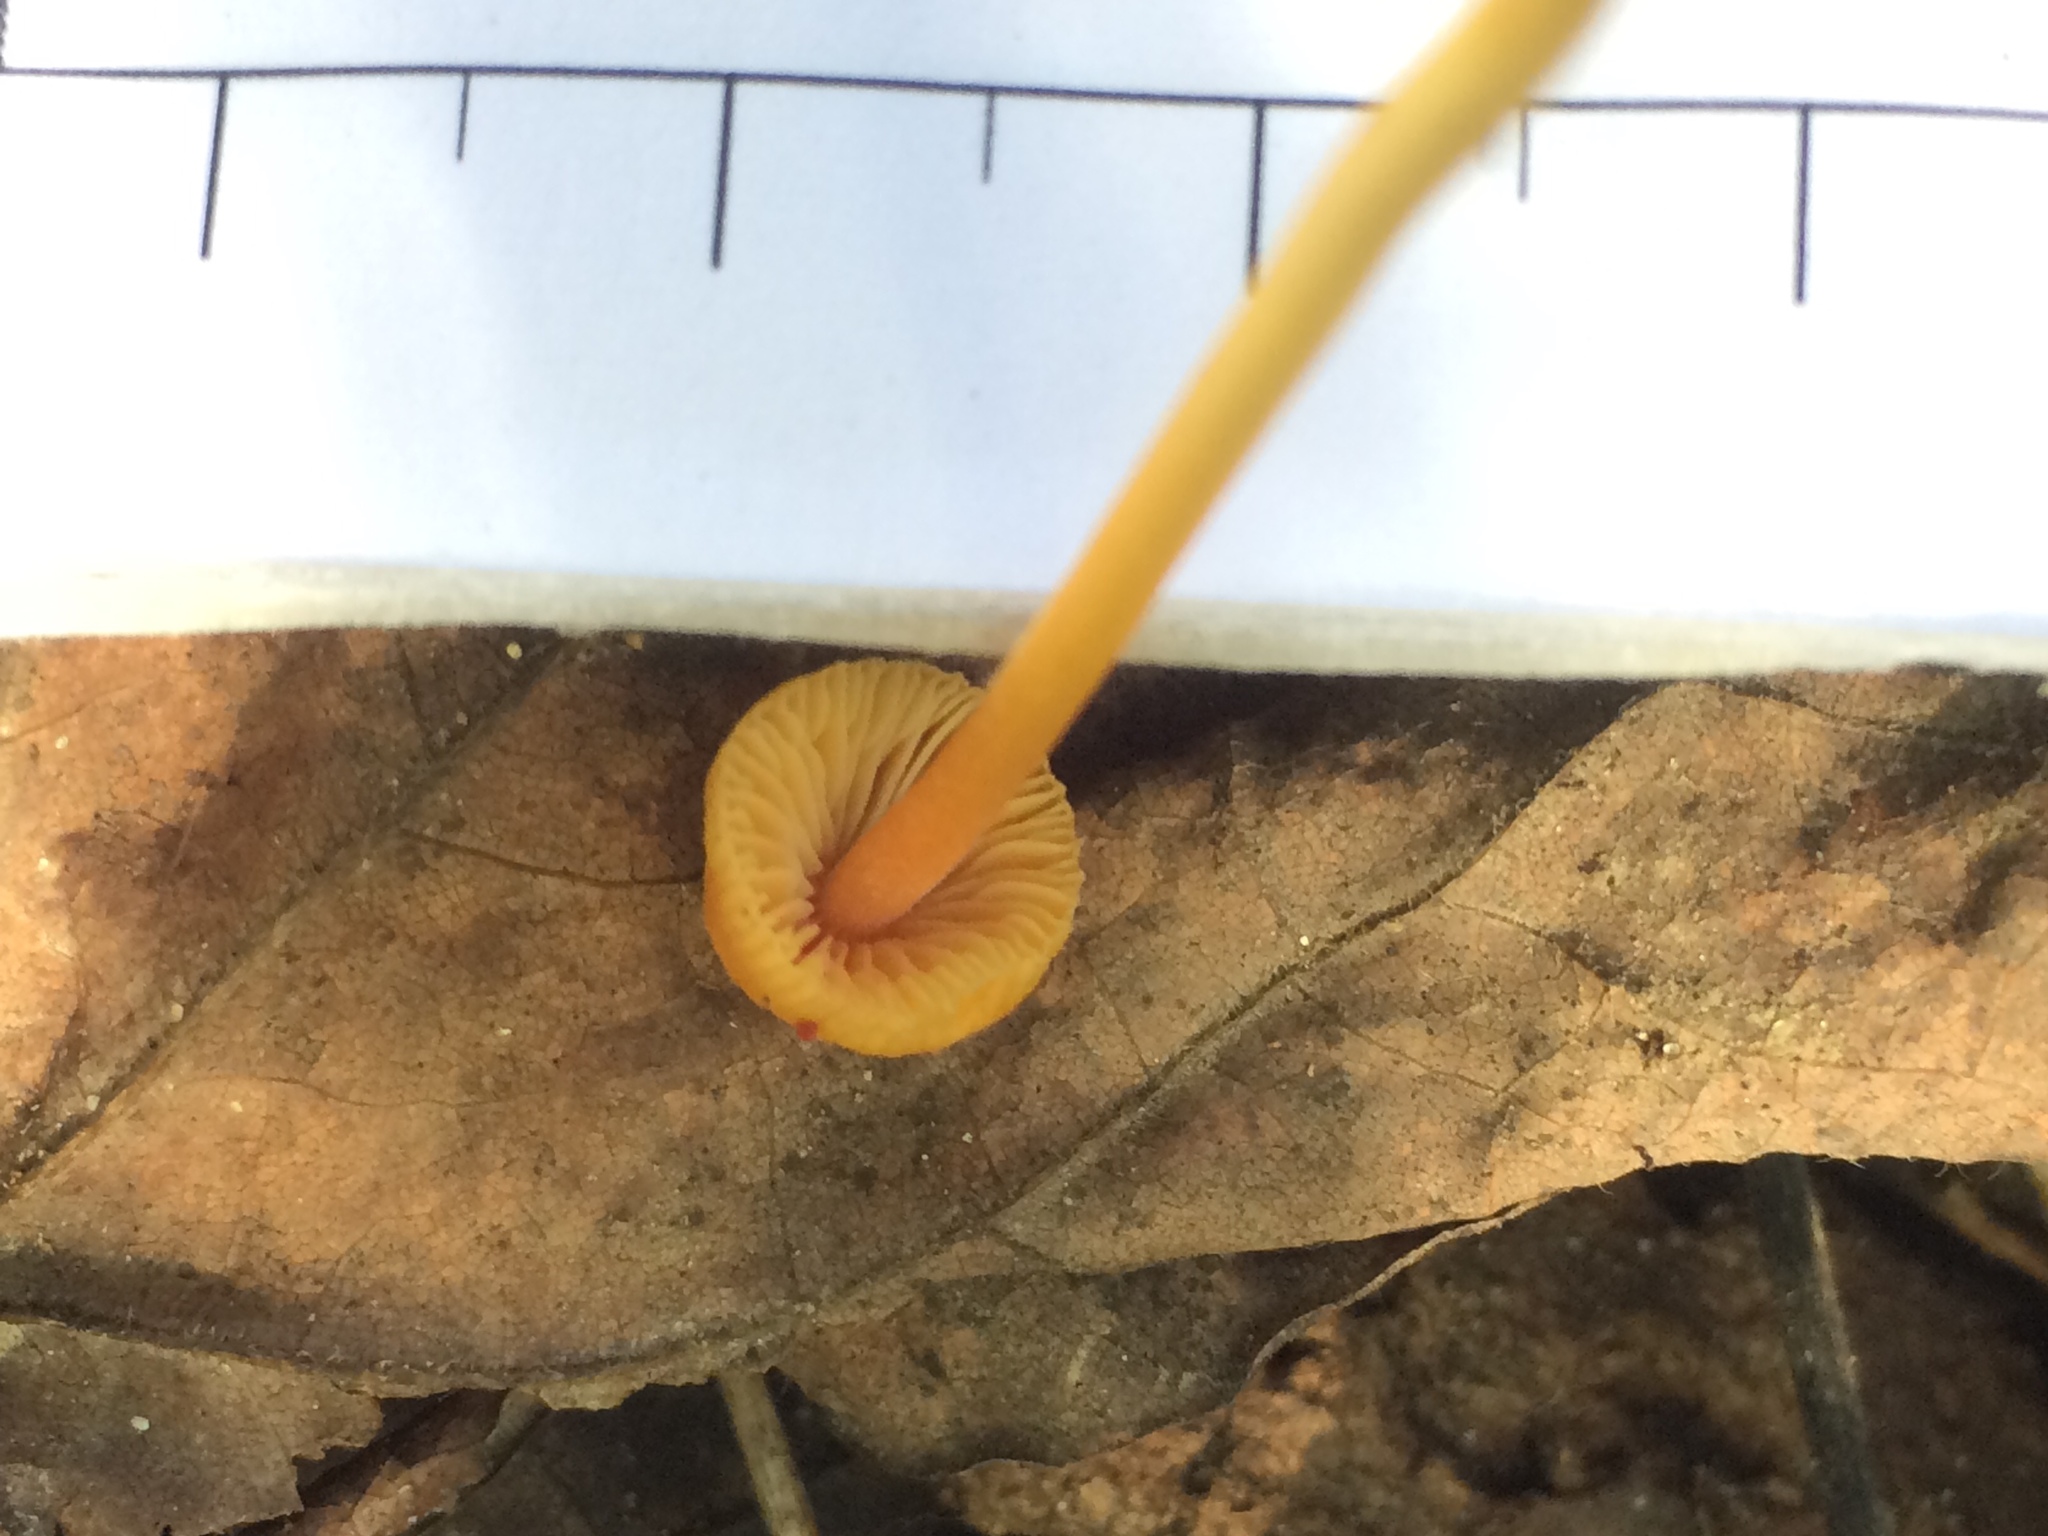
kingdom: Fungi
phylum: Basidiomycota
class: Agaricomycetes
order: Agaricales
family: Mycenaceae
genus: Mycena
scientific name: Mycena crocea
